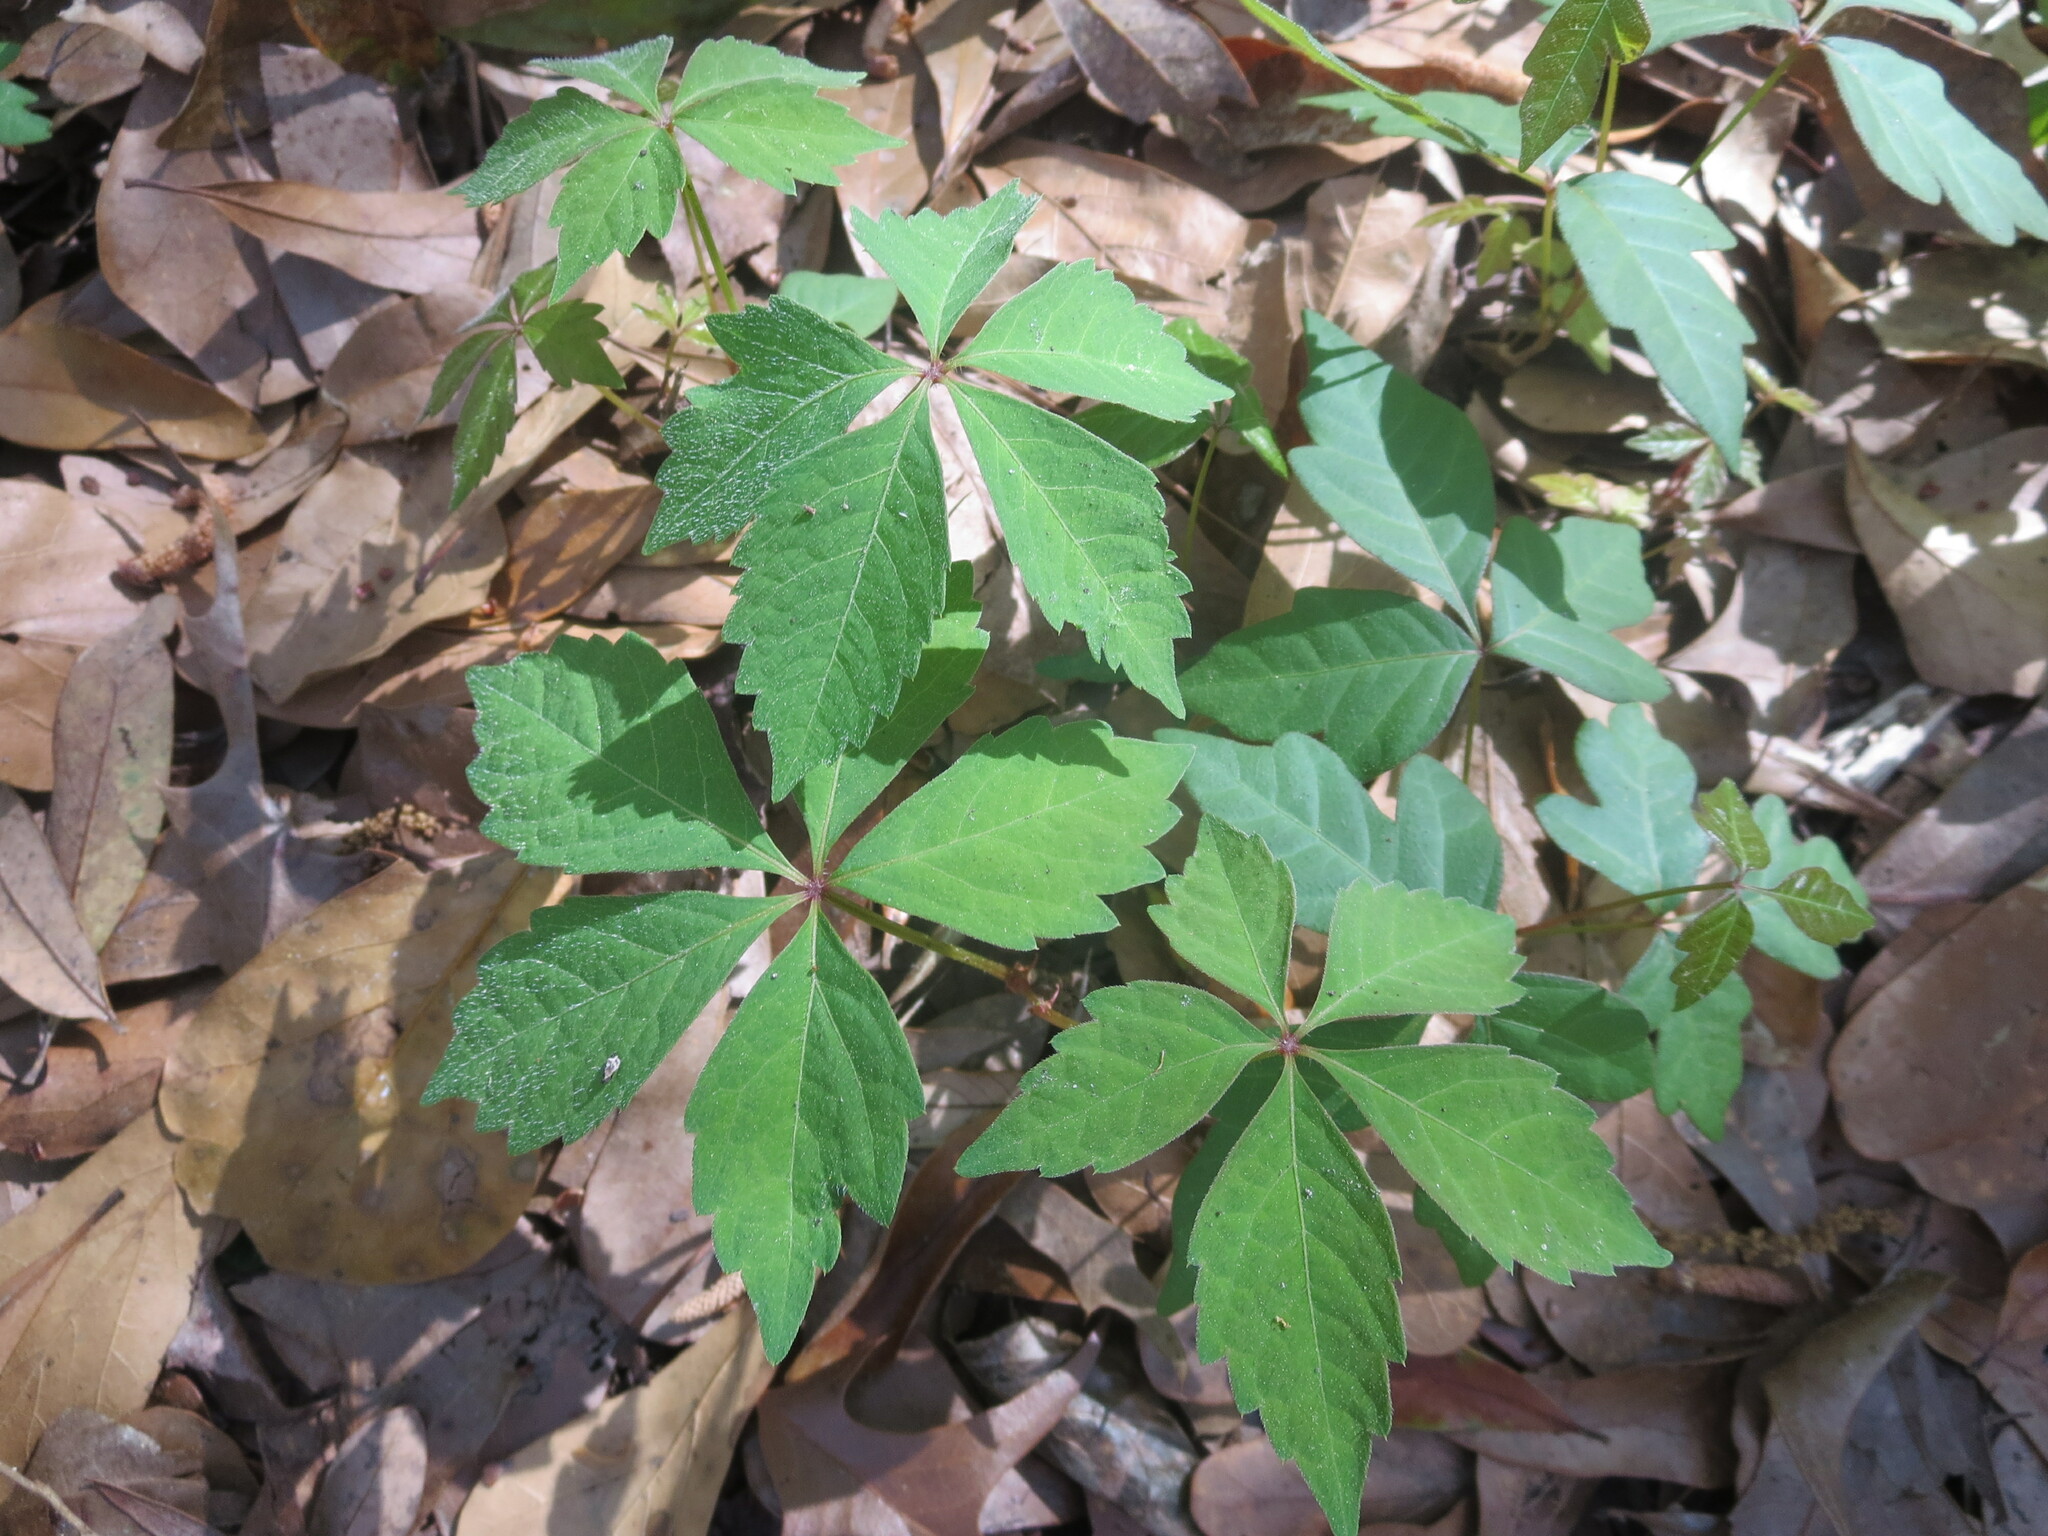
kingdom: Plantae
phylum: Tracheophyta
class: Magnoliopsida
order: Vitales
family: Vitaceae
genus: Parthenocissus
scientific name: Parthenocissus quinquefolia
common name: Virginia-creeper
